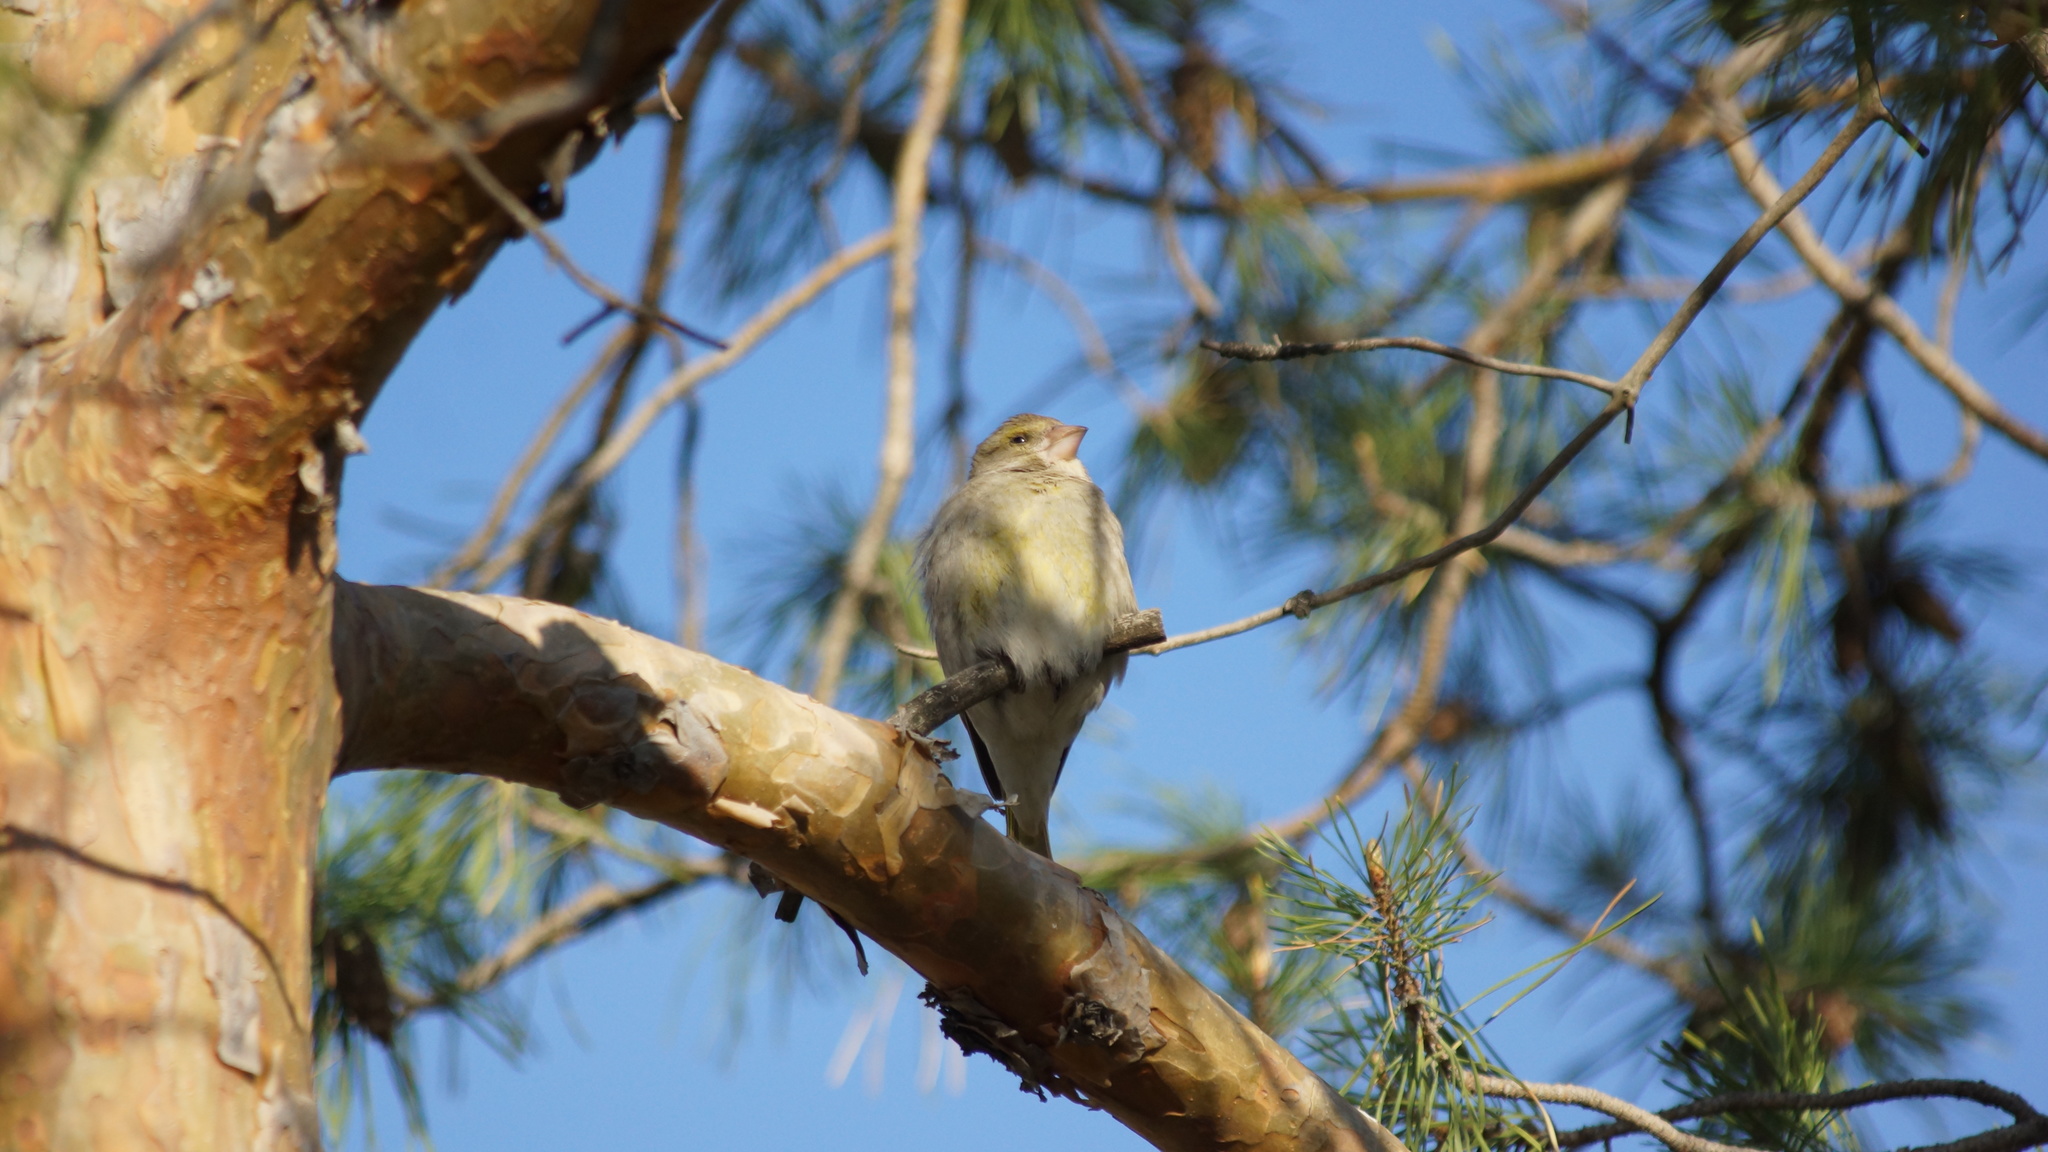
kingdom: Plantae
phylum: Tracheophyta
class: Liliopsida
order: Poales
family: Poaceae
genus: Chloris
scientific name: Chloris chloris
